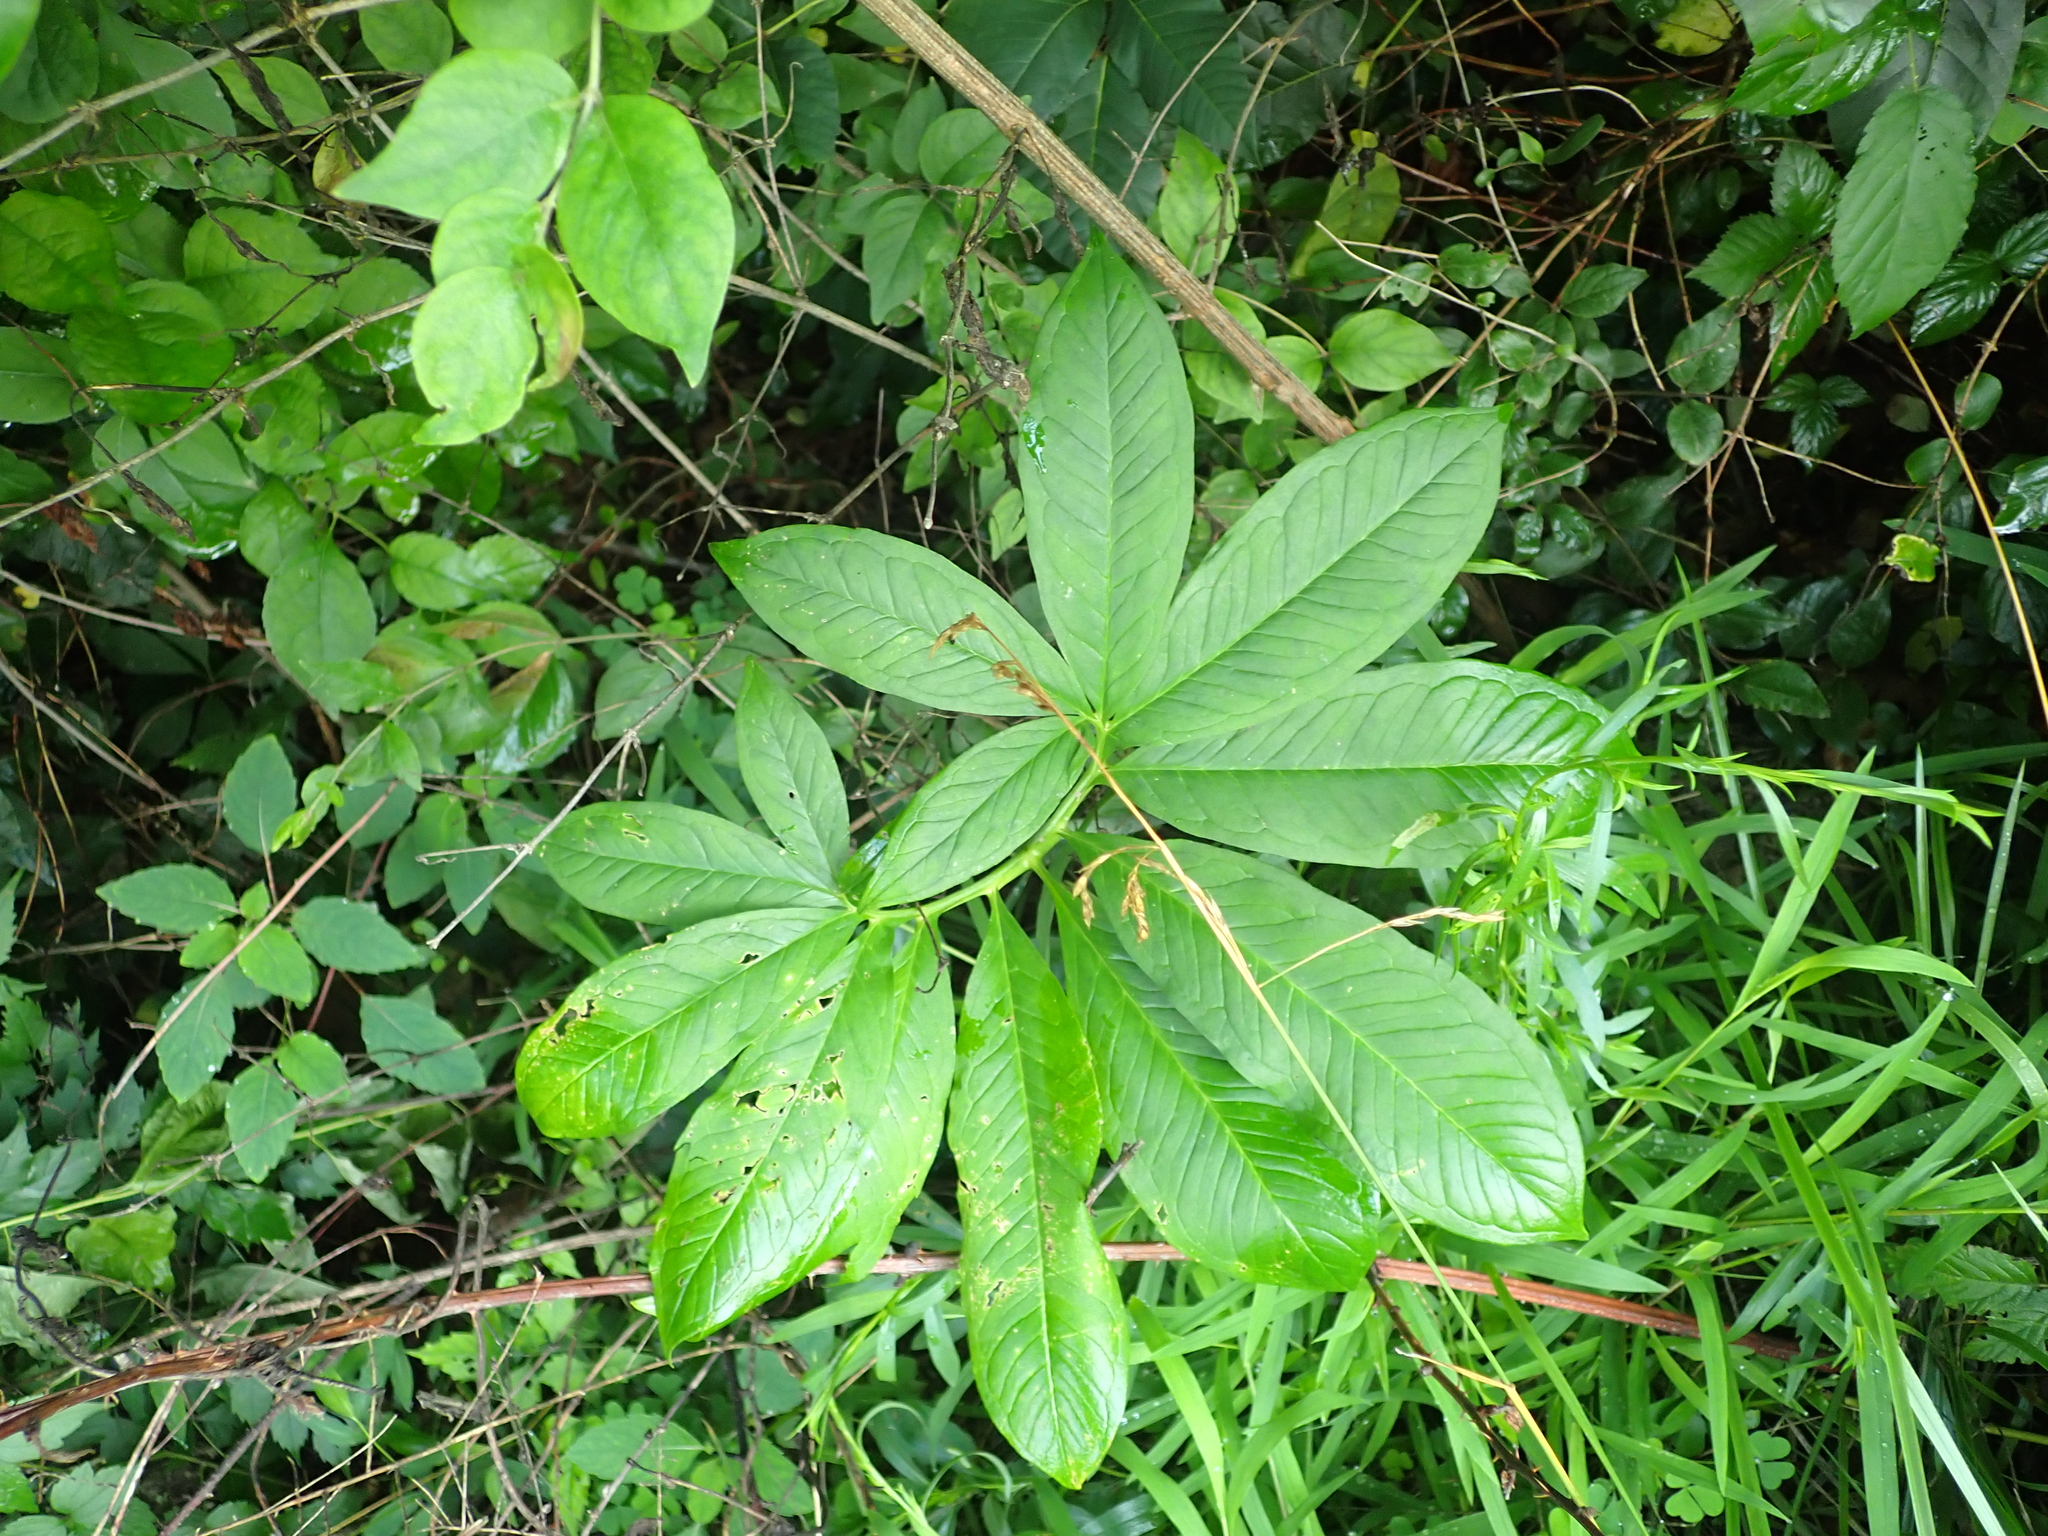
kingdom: Plantae
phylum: Tracheophyta
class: Liliopsida
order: Alismatales
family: Araceae
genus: Arisaema
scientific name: Arisaema dracontium
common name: Dragon-arum
